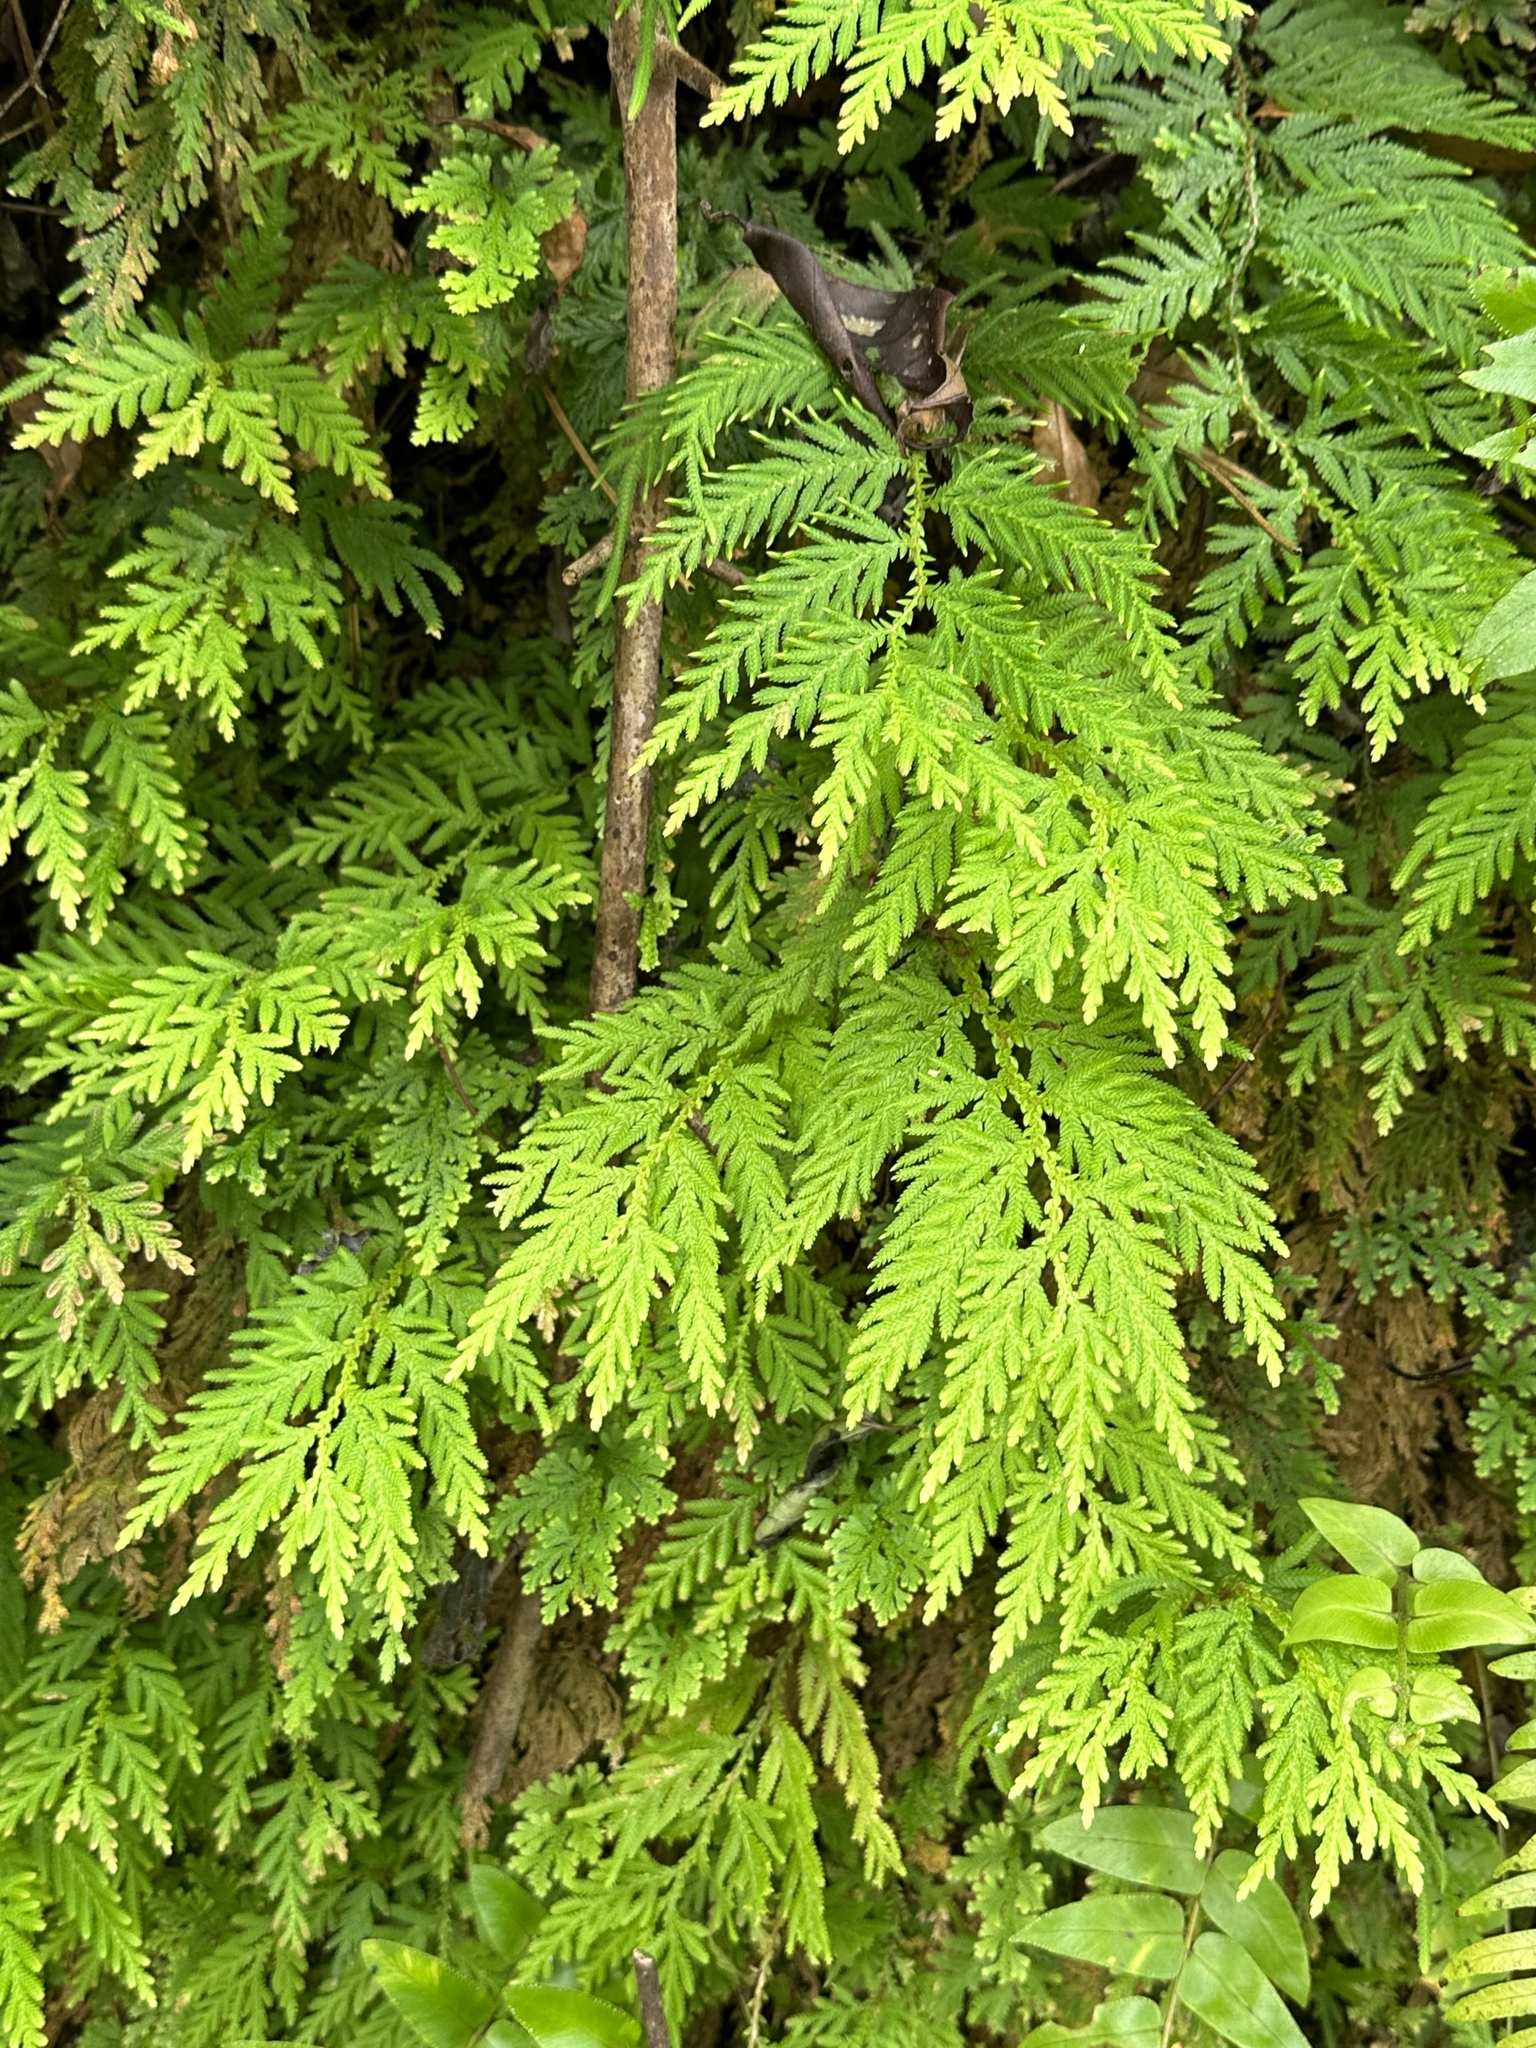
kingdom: Plantae
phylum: Tracheophyta
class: Lycopodiopsida
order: Selaginellales
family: Selaginellaceae
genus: Selaginella
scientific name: Selaginella delicatula
